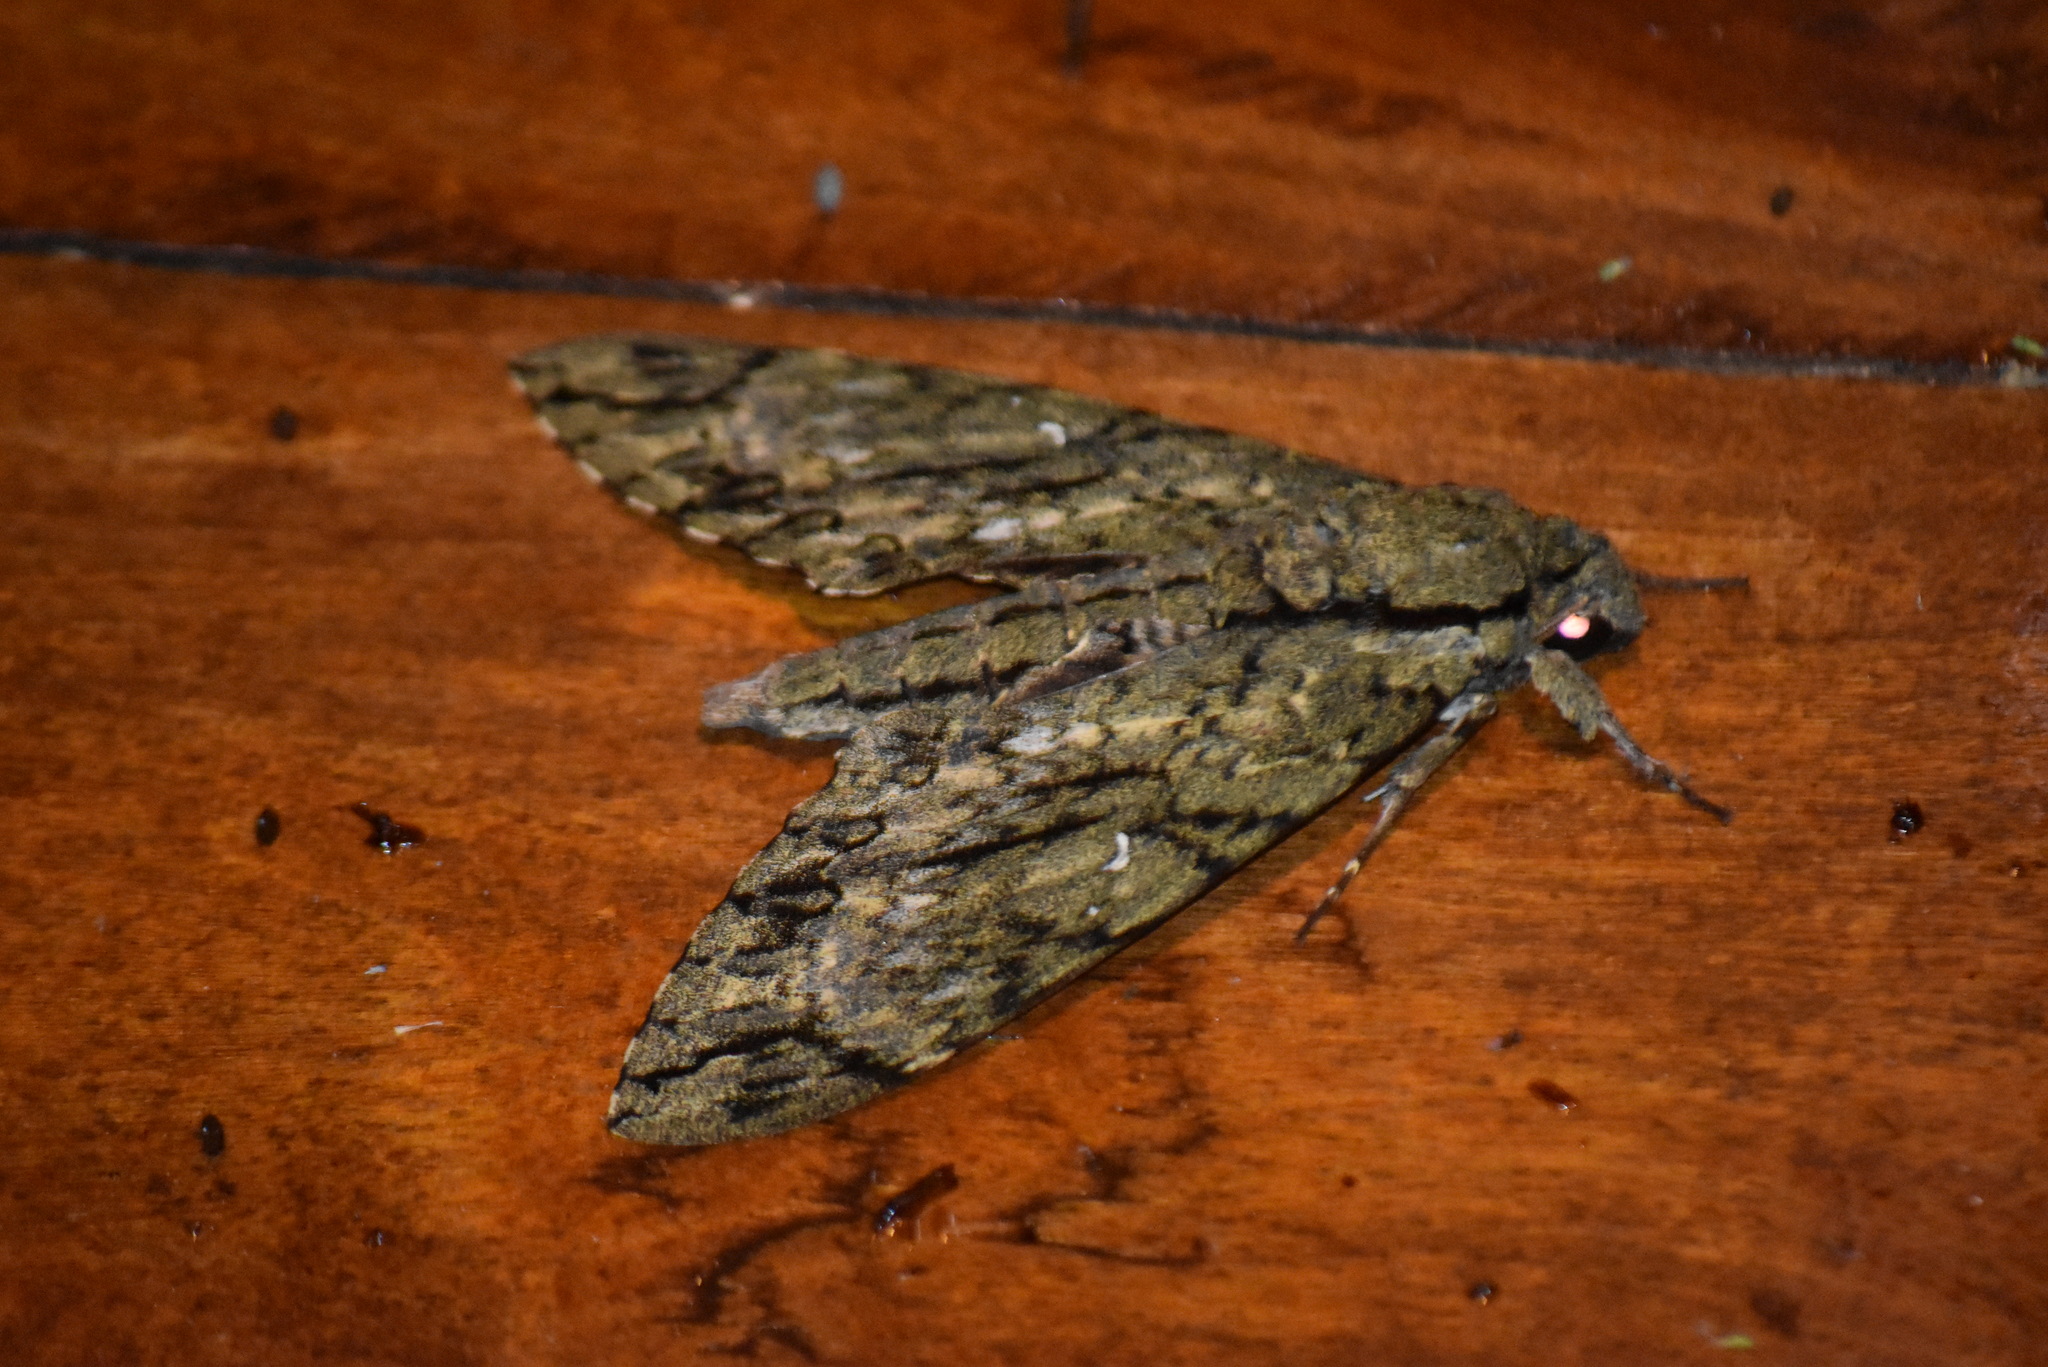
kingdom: Animalia
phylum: Arthropoda
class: Insecta
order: Lepidoptera
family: Sphingidae
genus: Cocytius
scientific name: Cocytius lucifer
